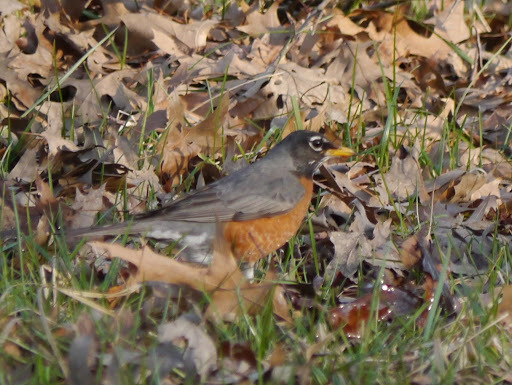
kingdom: Animalia
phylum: Chordata
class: Aves
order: Passeriformes
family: Turdidae
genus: Turdus
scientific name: Turdus migratorius
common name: American robin
